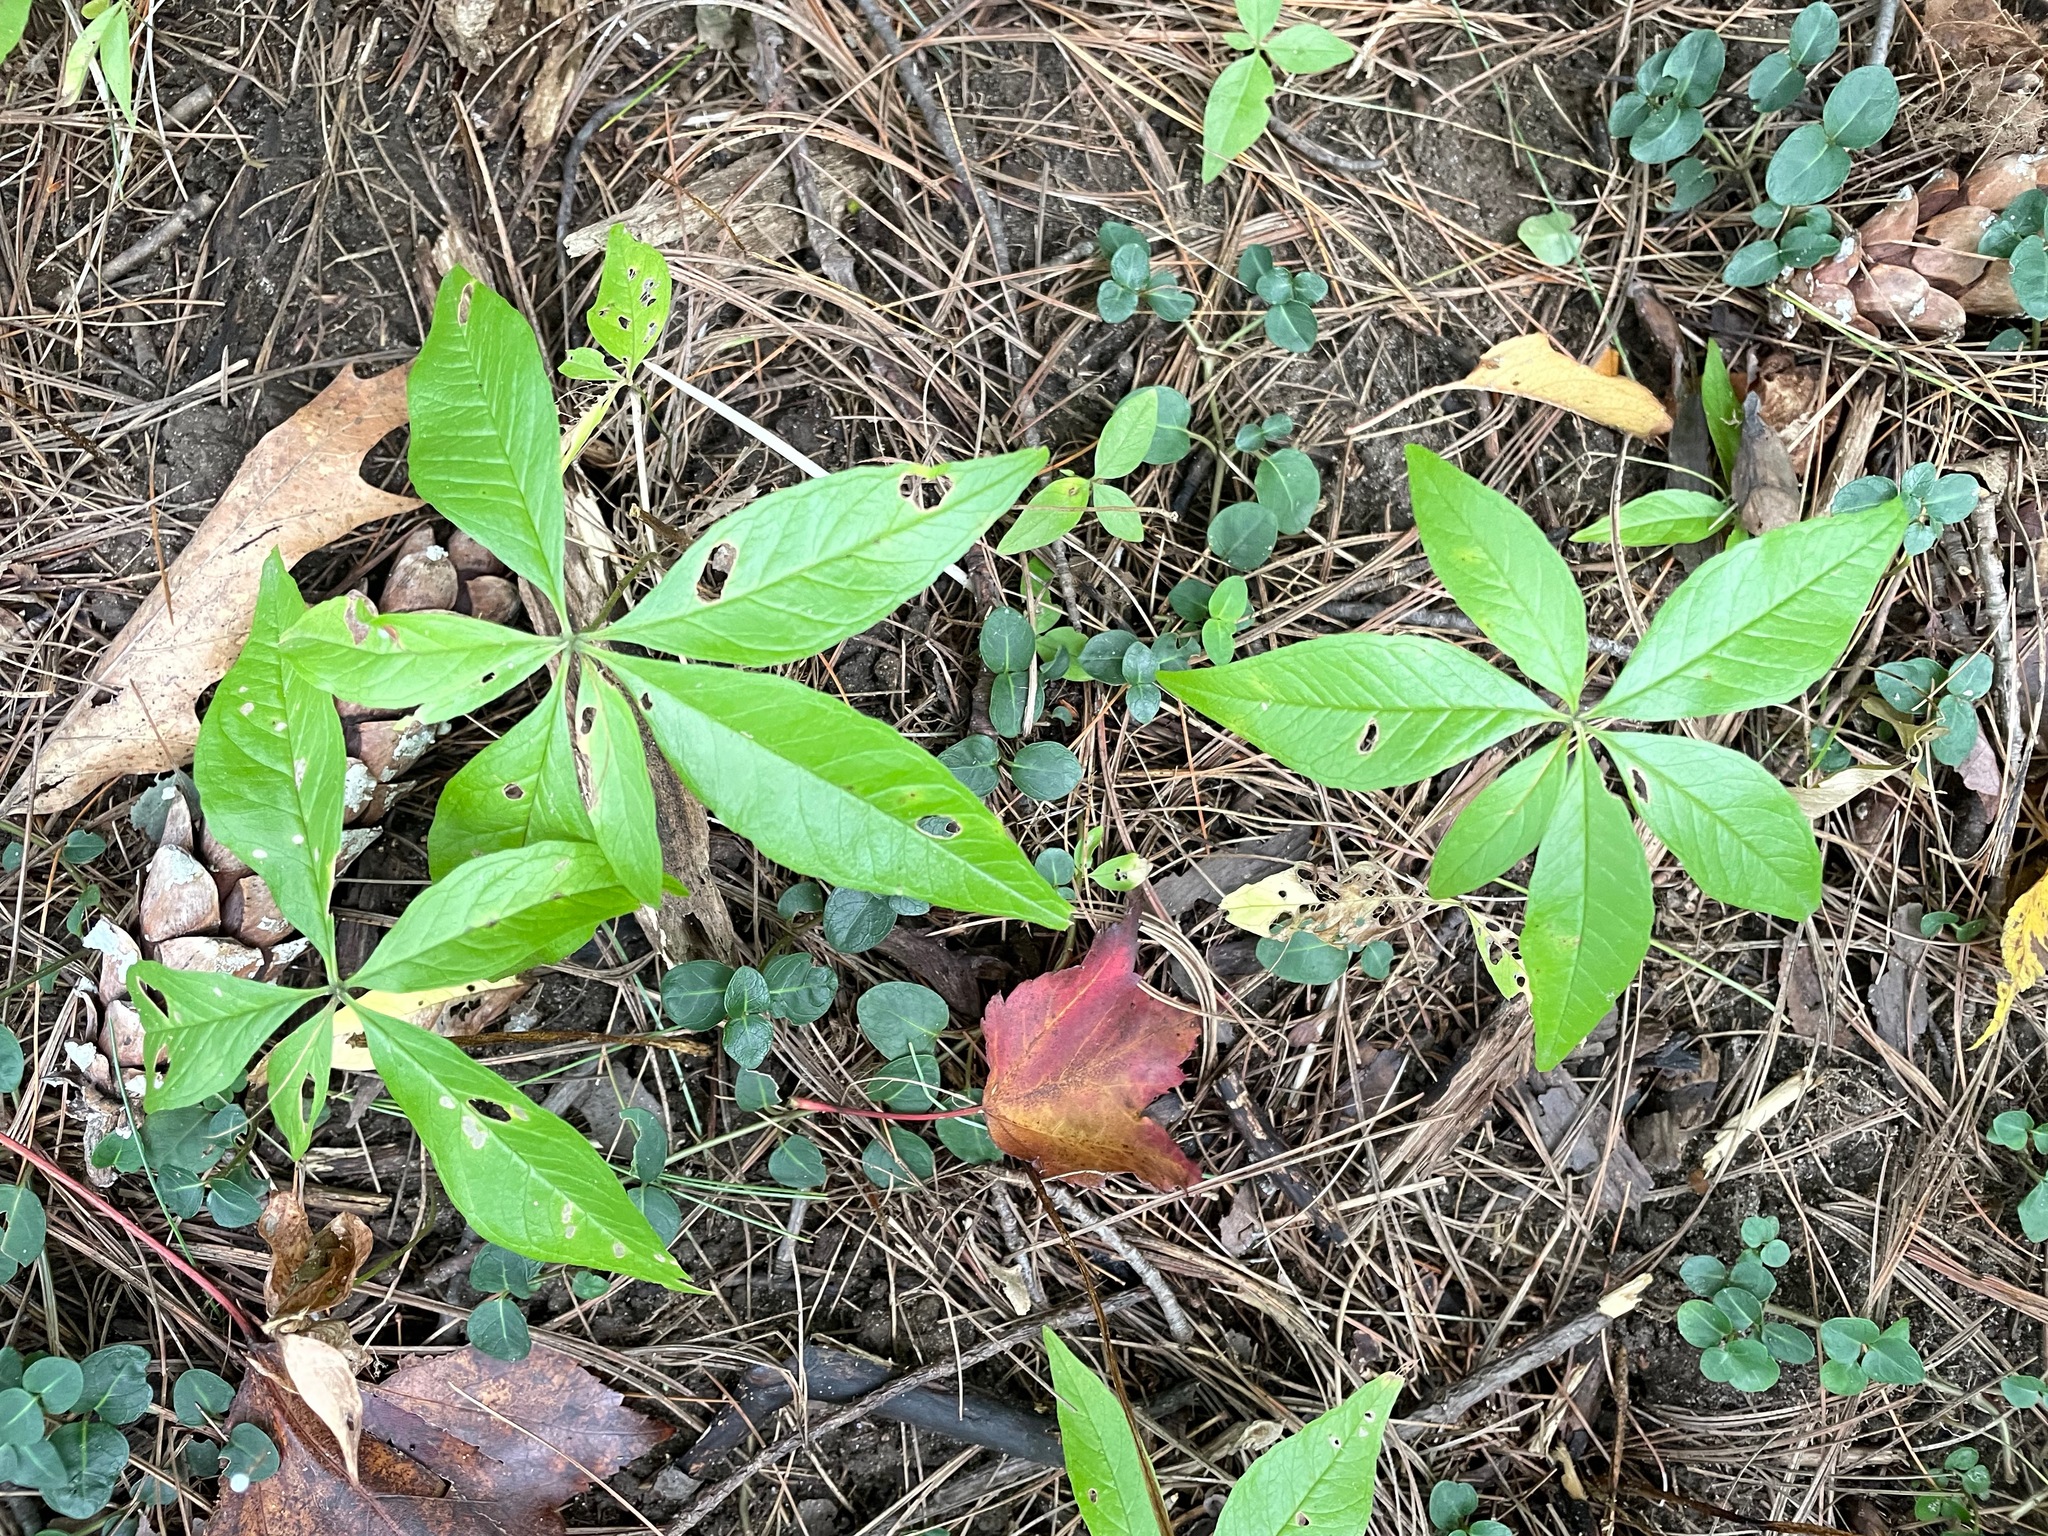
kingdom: Plantae
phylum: Tracheophyta
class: Magnoliopsida
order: Ericales
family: Primulaceae
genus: Lysimachia
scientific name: Lysimachia borealis
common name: American starflower
